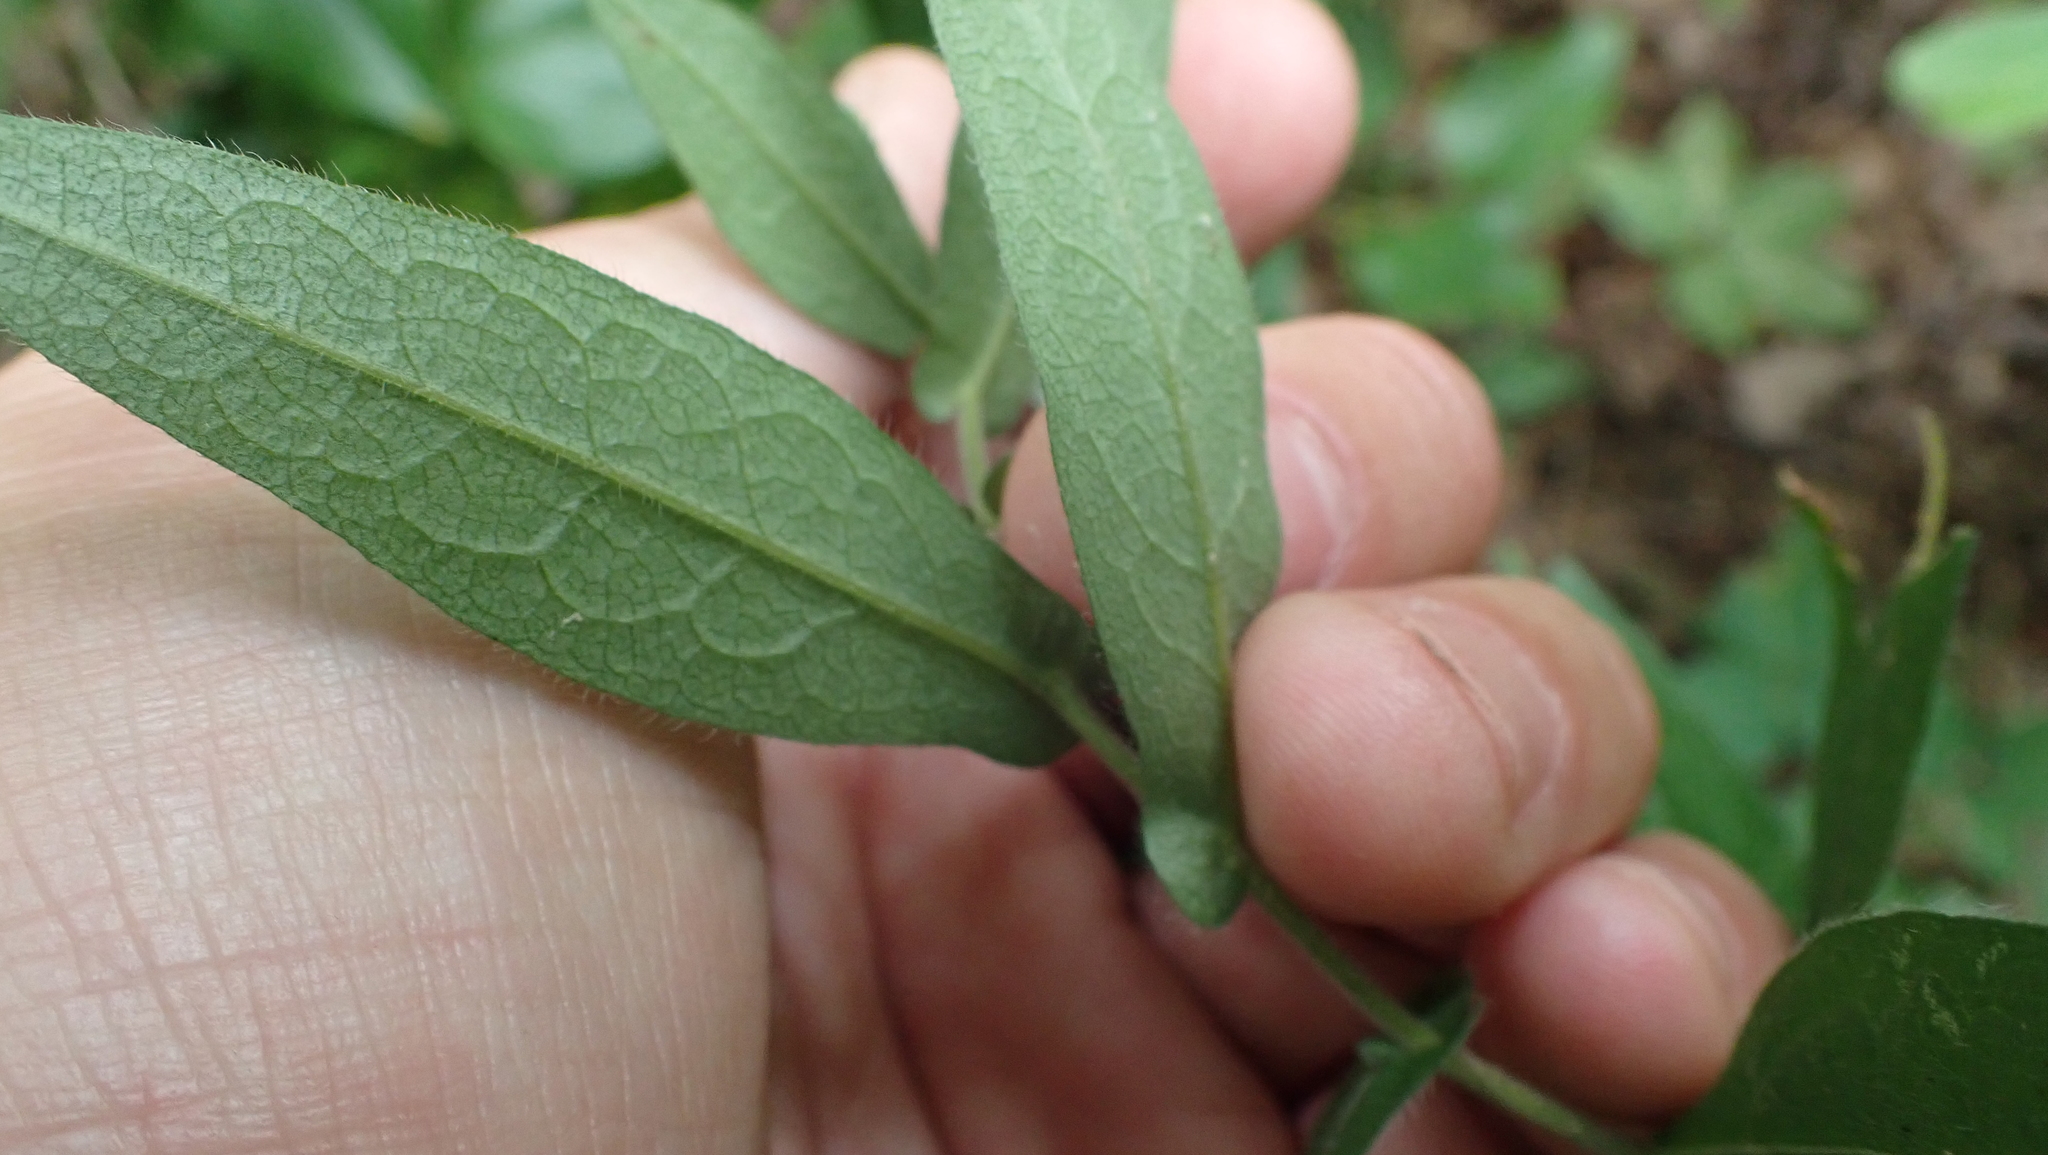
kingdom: Plantae
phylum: Tracheophyta
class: Magnoliopsida
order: Asterales
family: Asteraceae
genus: Symphyotrichum
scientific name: Symphyotrichum phlogifolium
